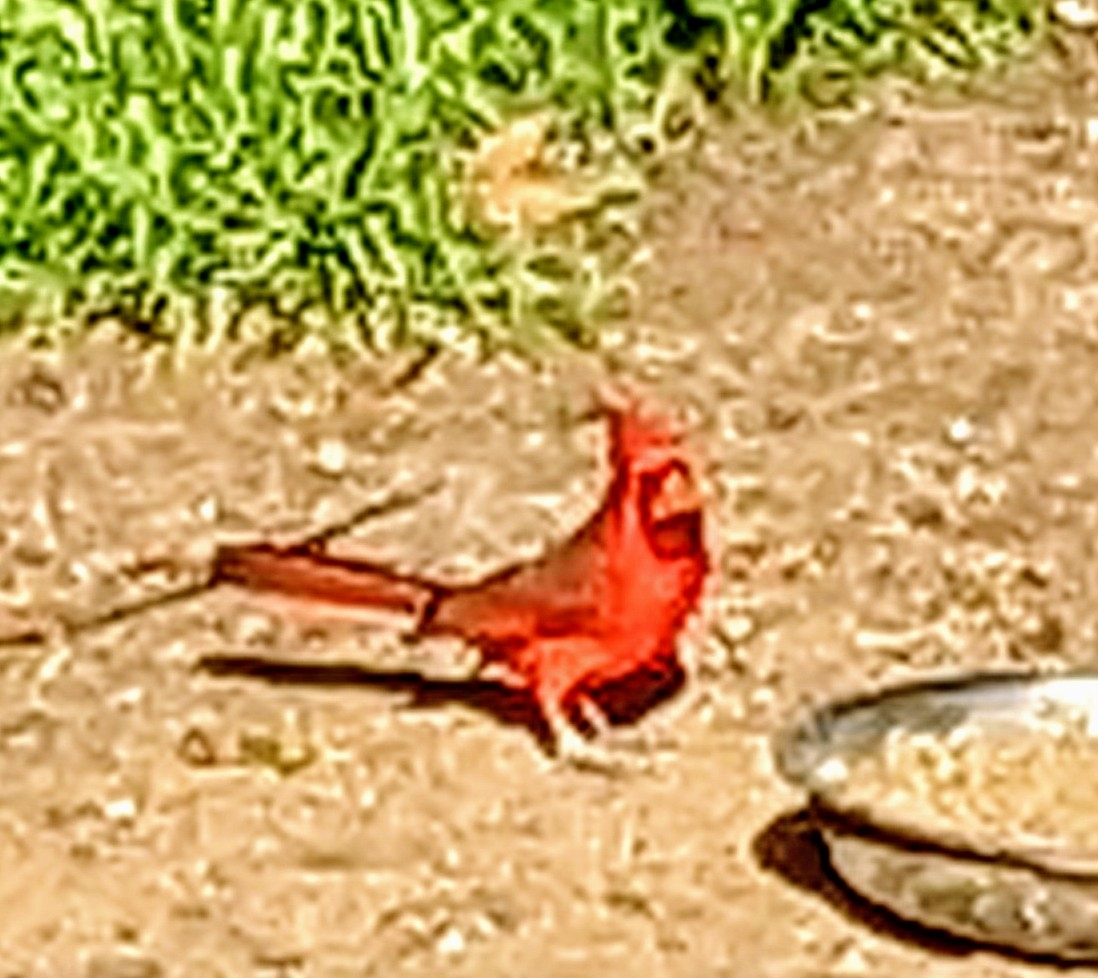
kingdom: Animalia
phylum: Chordata
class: Aves
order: Passeriformes
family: Cardinalidae
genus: Cardinalis
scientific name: Cardinalis cardinalis
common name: Northern cardinal
